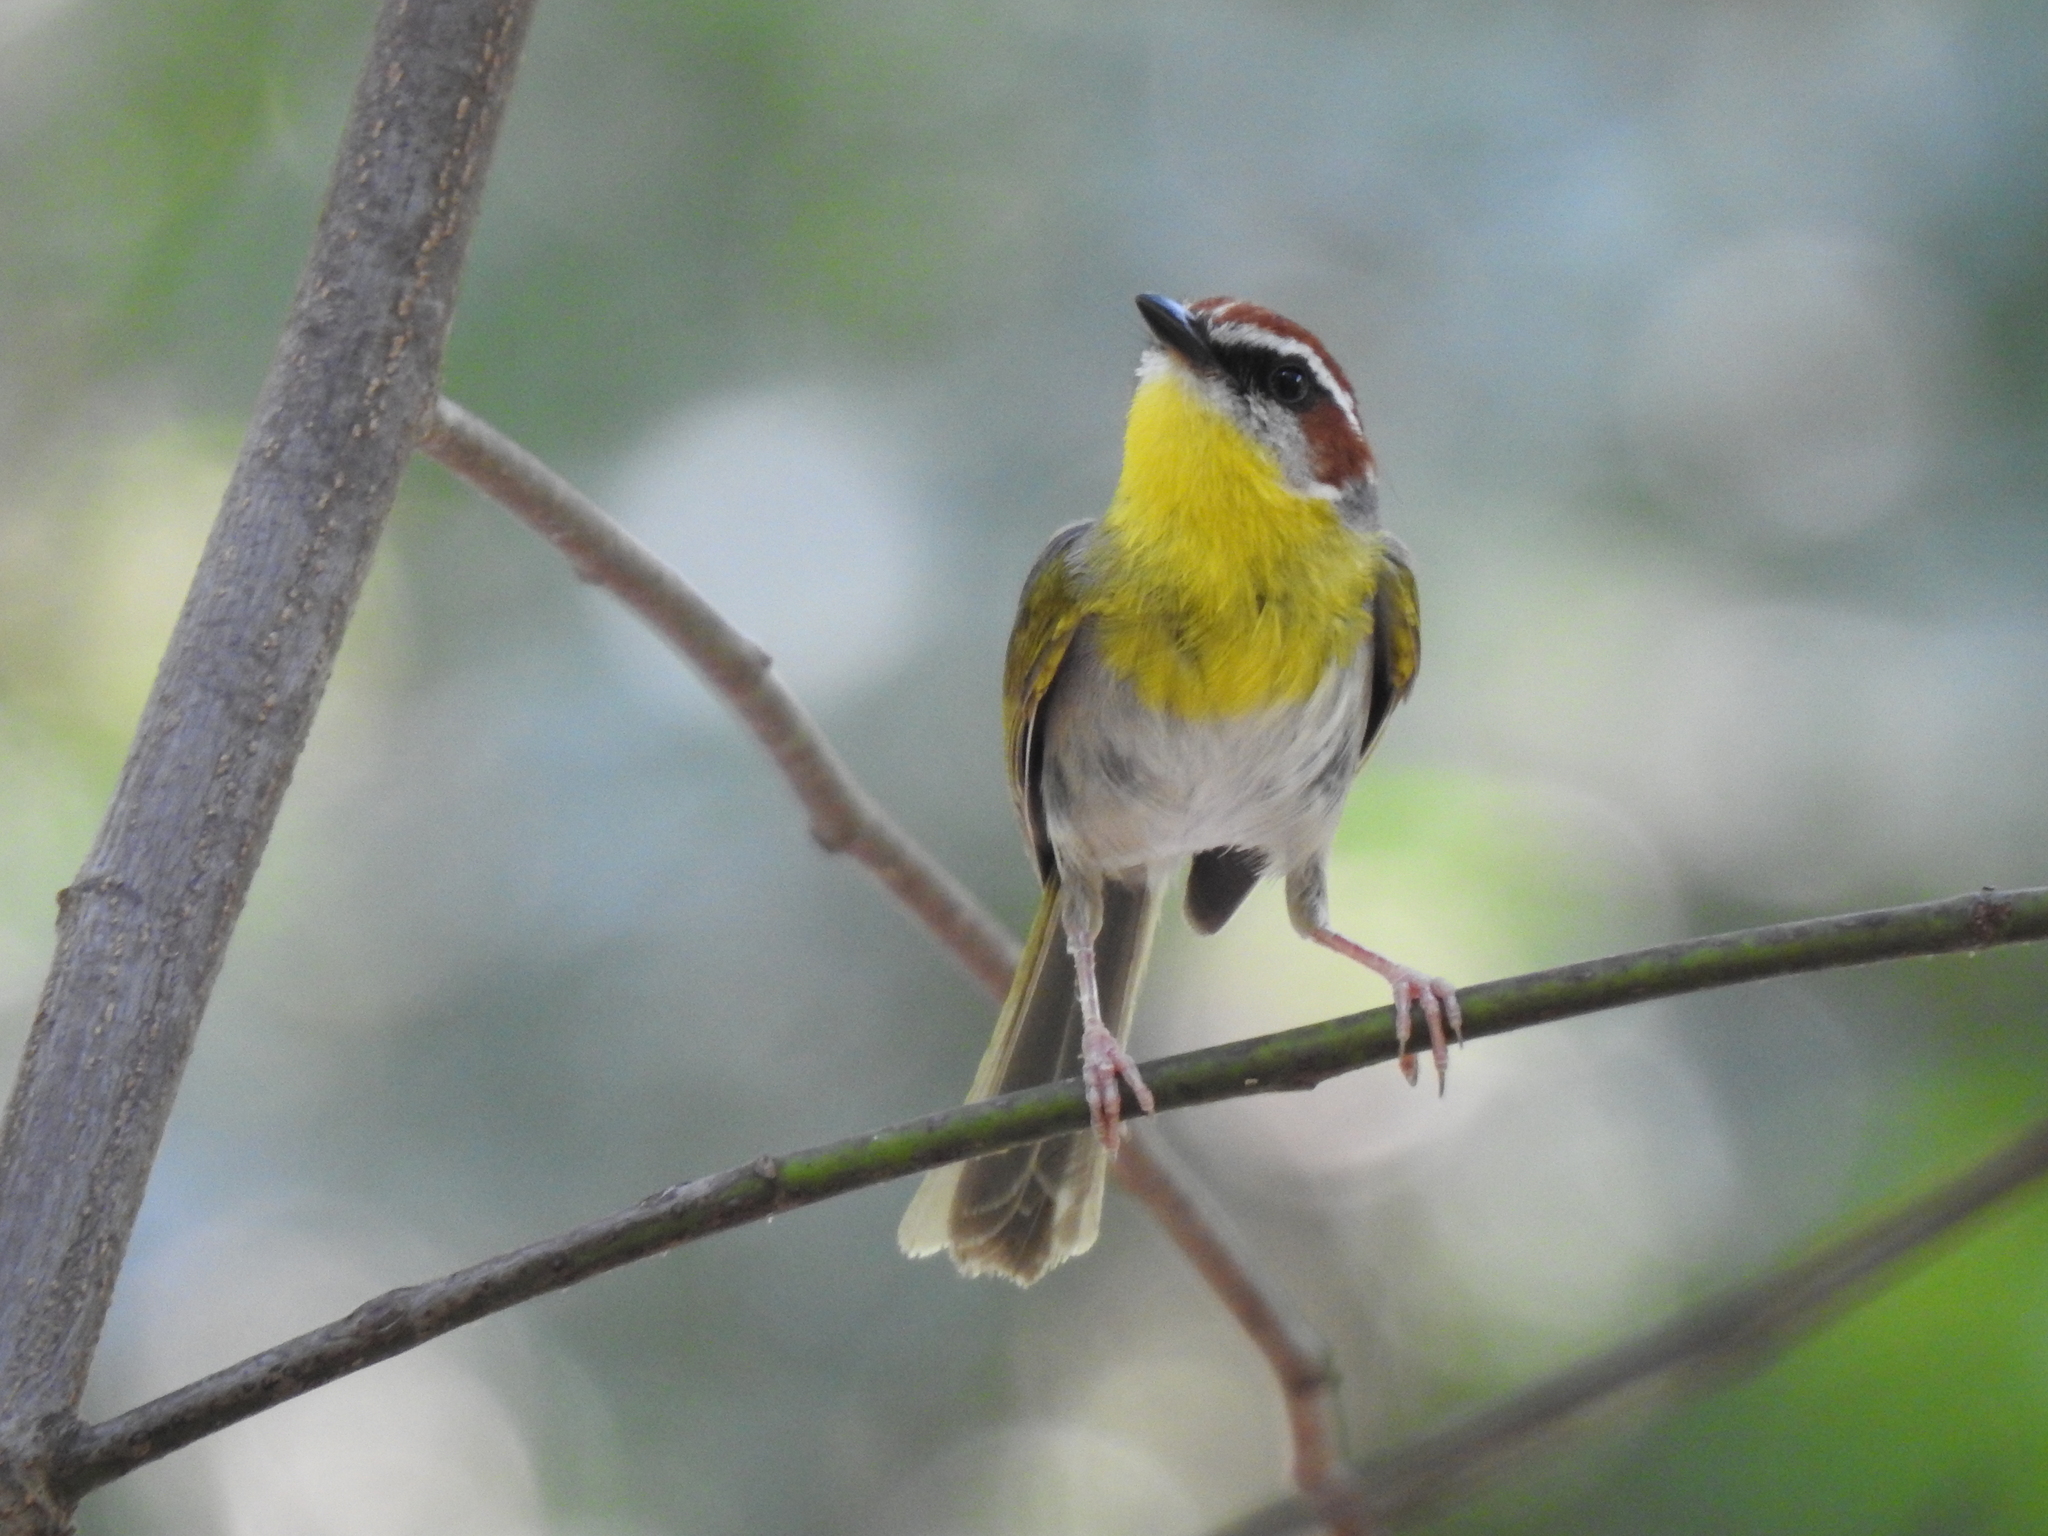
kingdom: Animalia
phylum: Chordata
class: Aves
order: Passeriformes
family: Parulidae
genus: Basileuterus
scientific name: Basileuterus rufifrons
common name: Rufous-capped warbler
